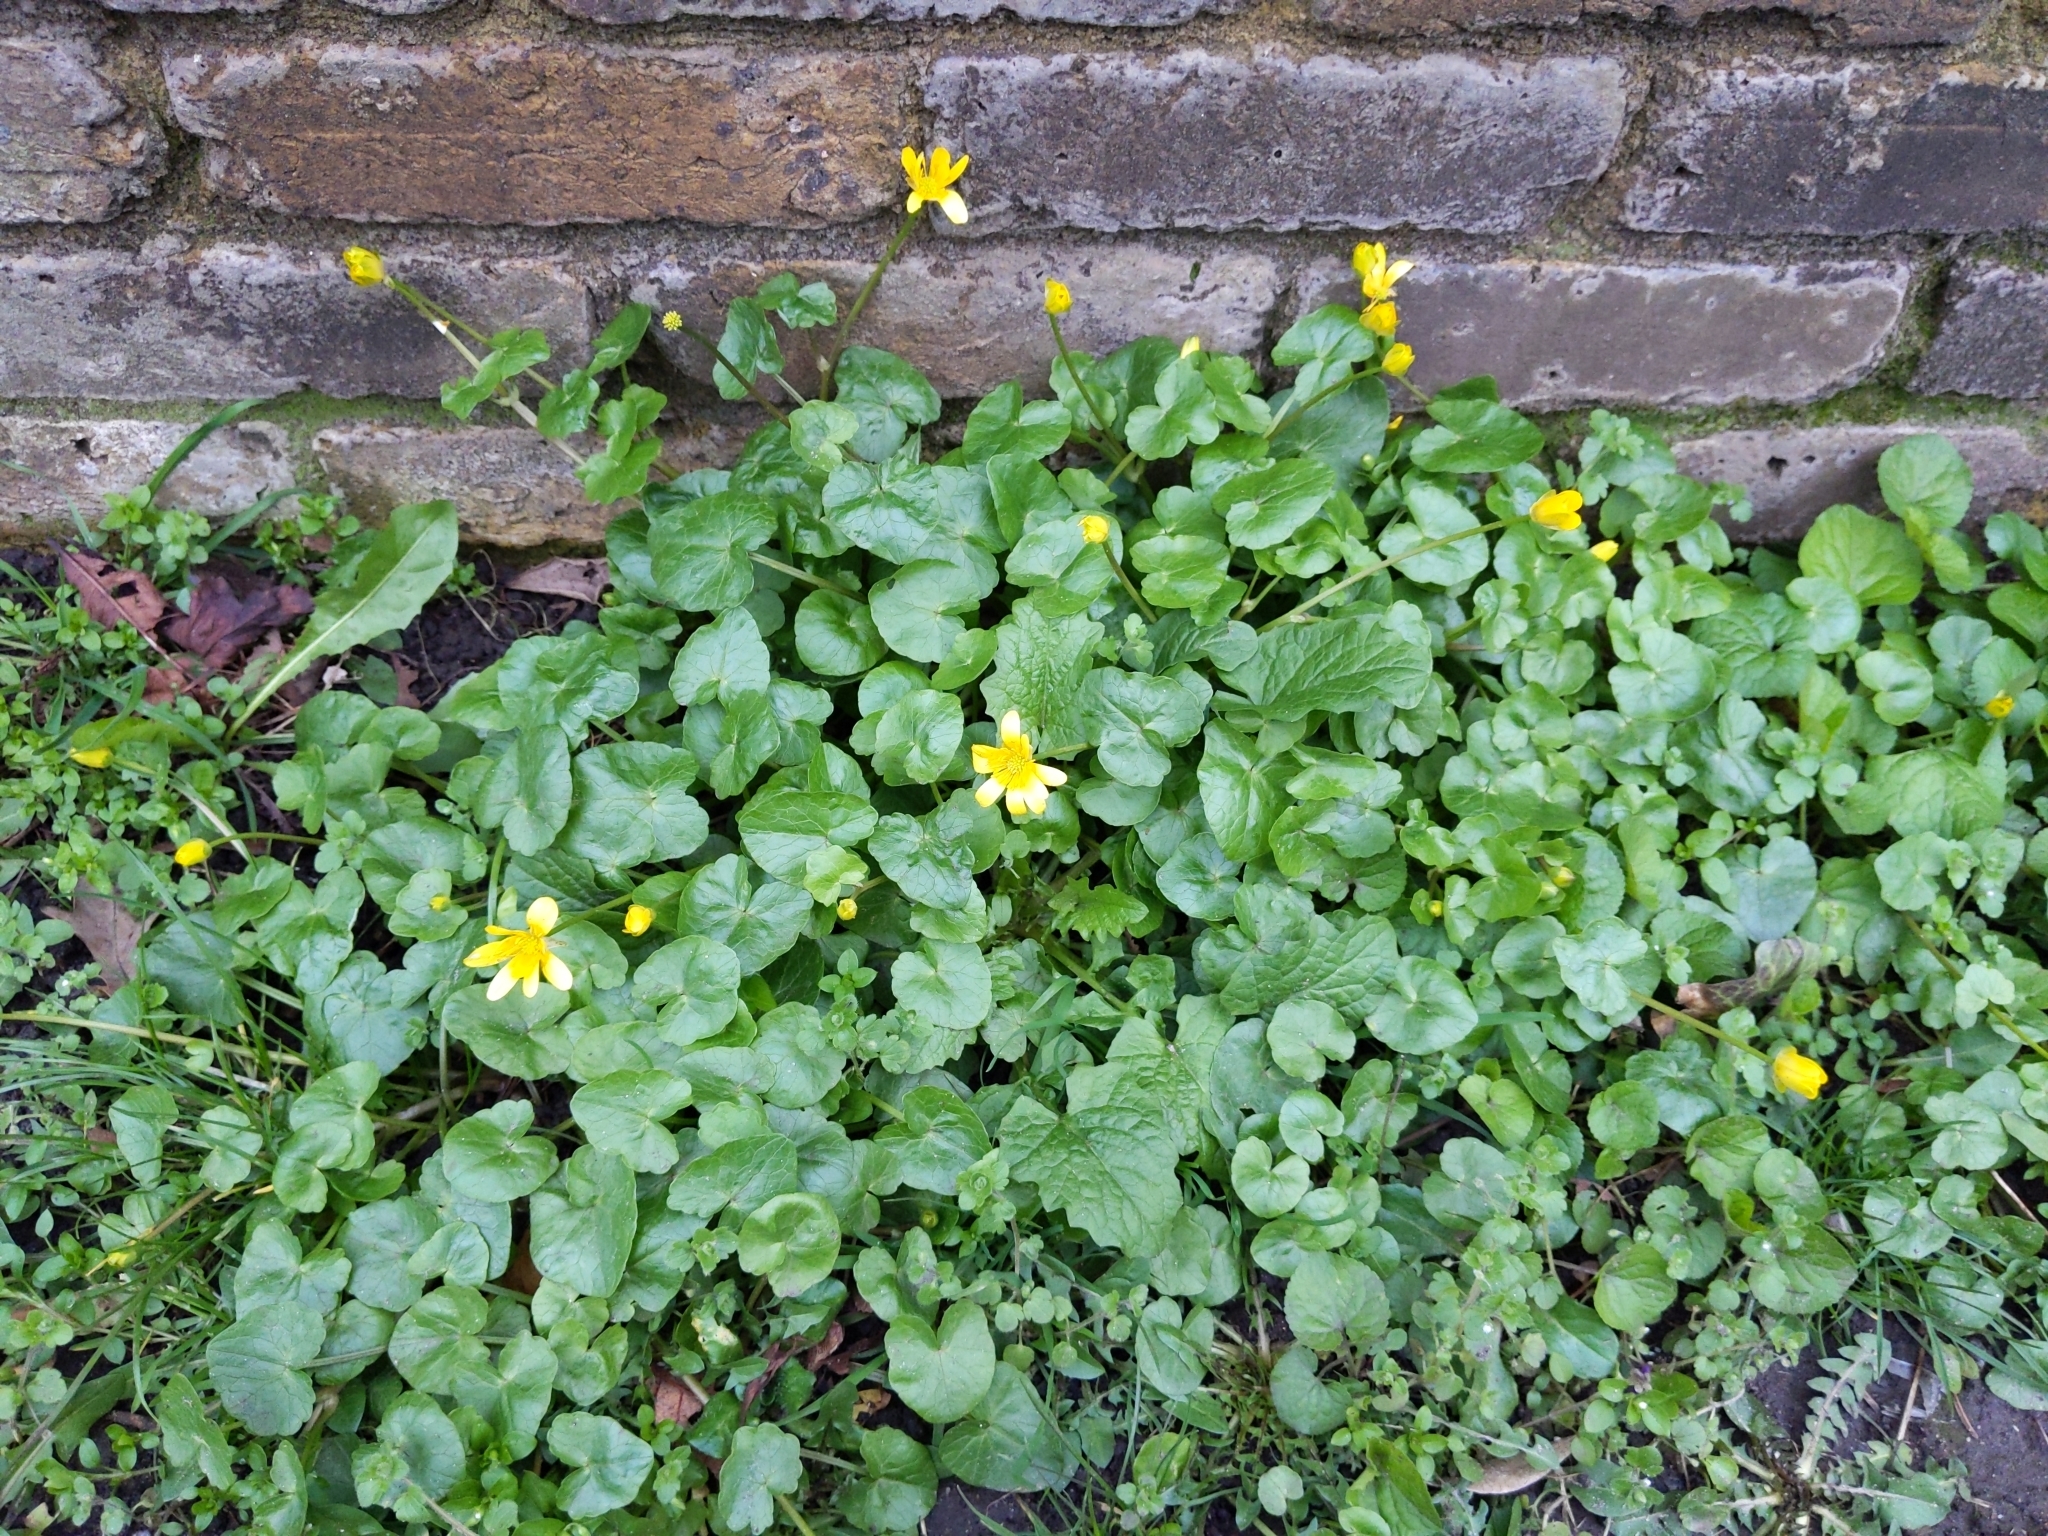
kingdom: Plantae
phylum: Tracheophyta
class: Magnoliopsida
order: Ranunculales
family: Ranunculaceae
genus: Ficaria
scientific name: Ficaria verna
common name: Lesser celandine
